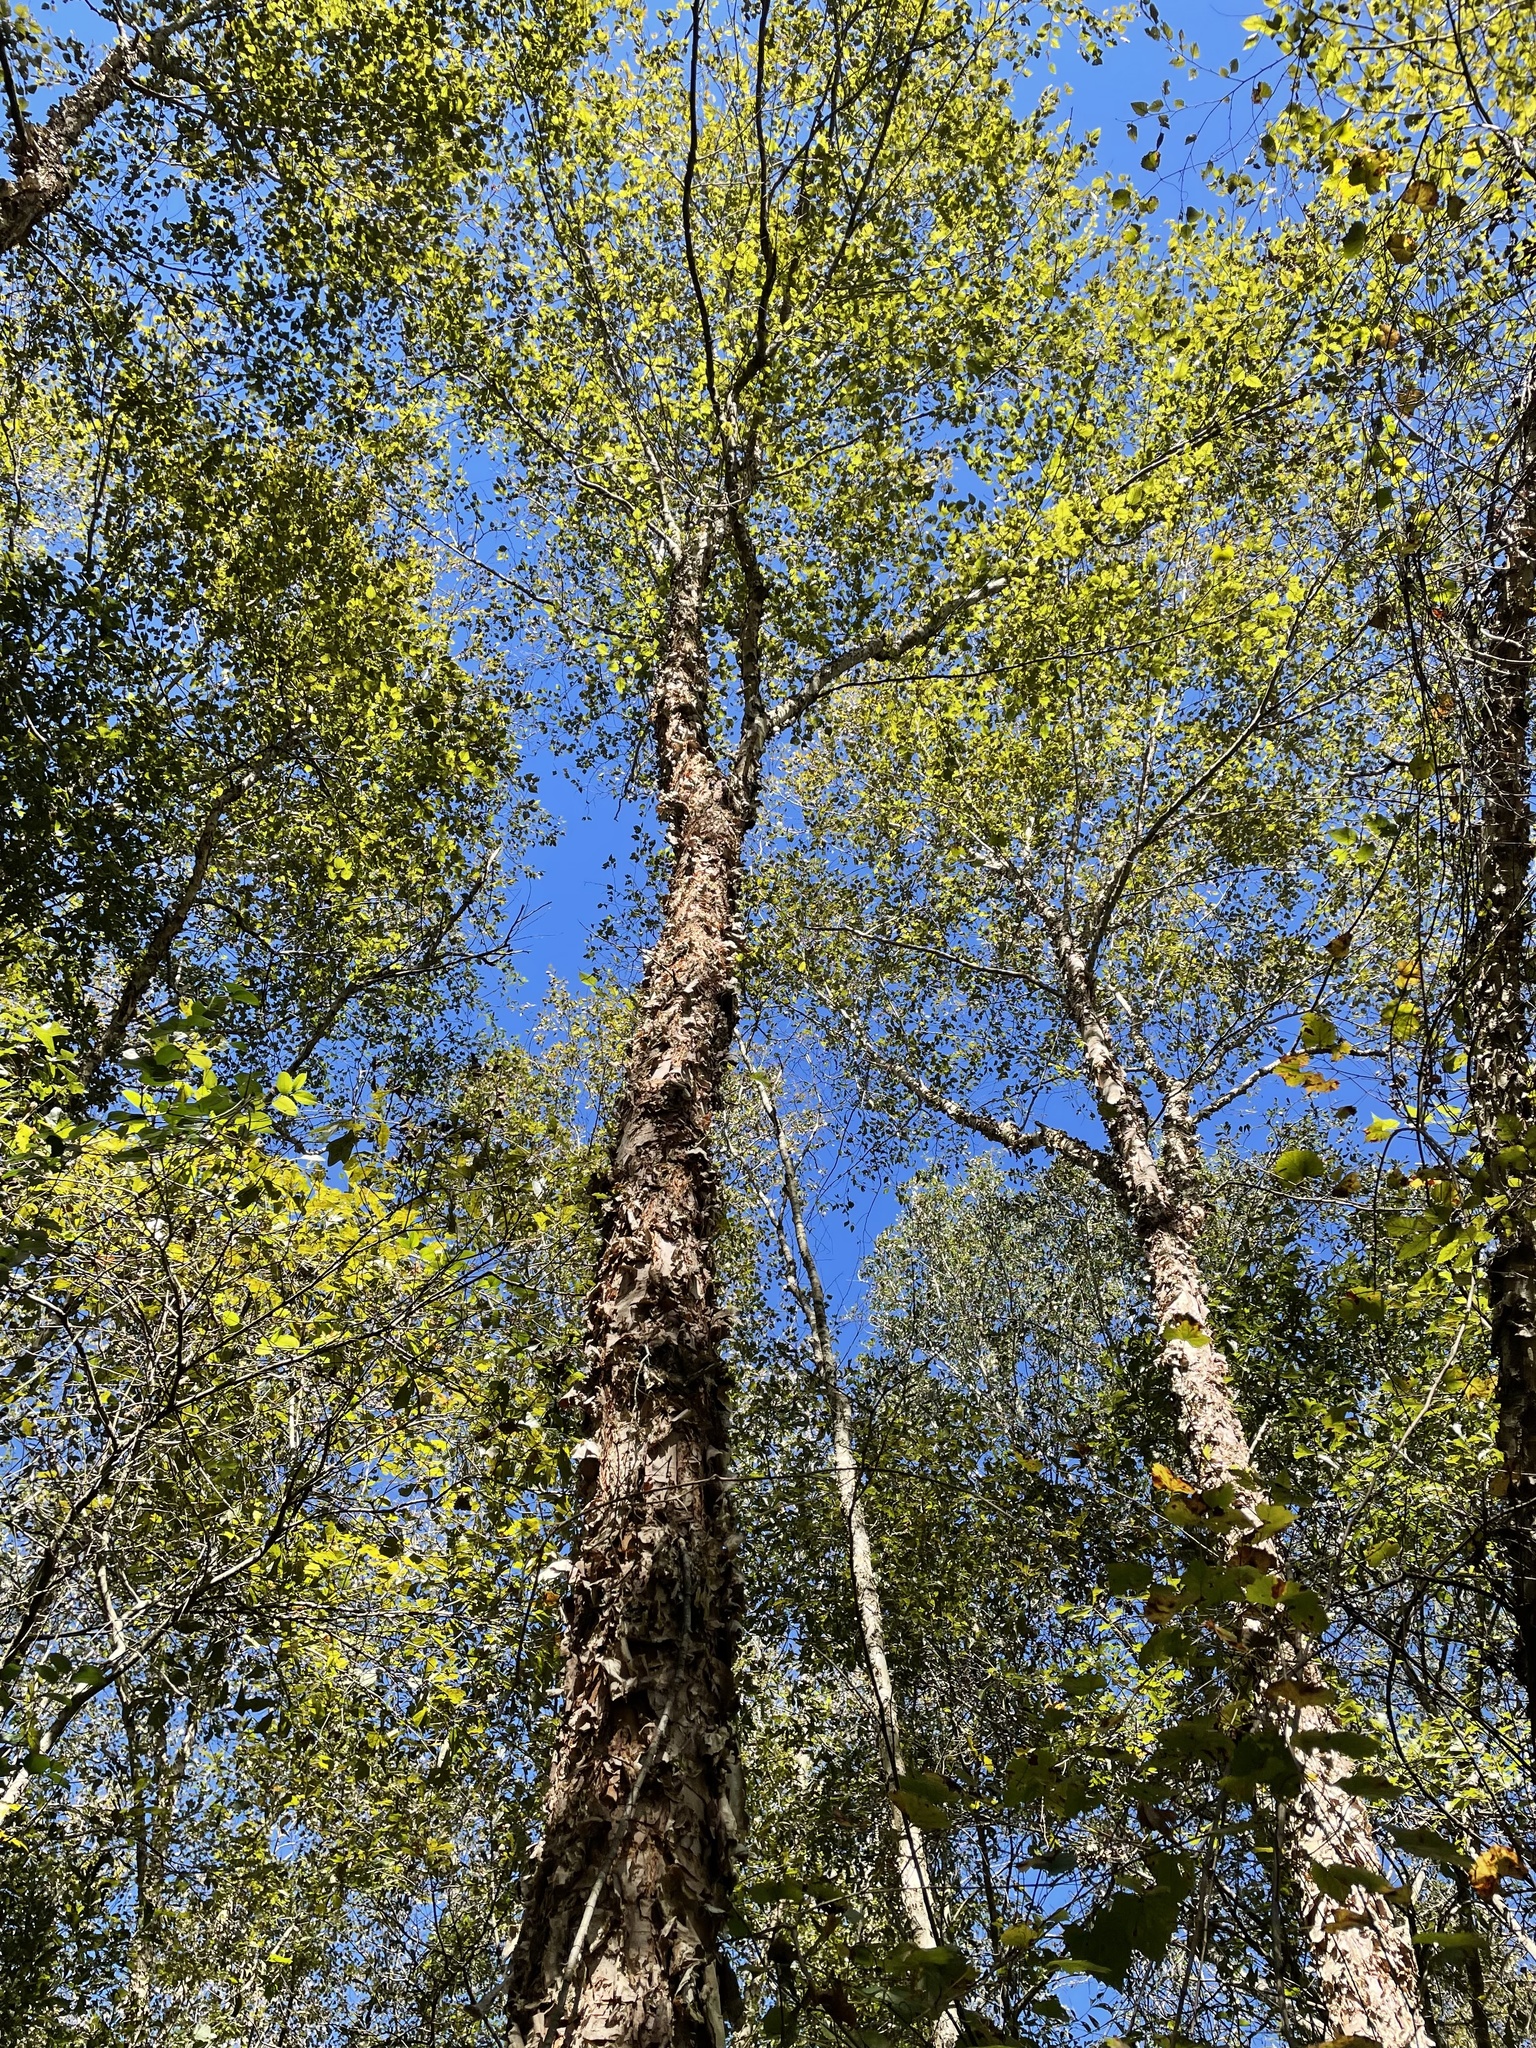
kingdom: Plantae
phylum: Tracheophyta
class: Magnoliopsida
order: Fagales
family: Betulaceae
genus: Betula
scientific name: Betula nigra
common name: Black birch
